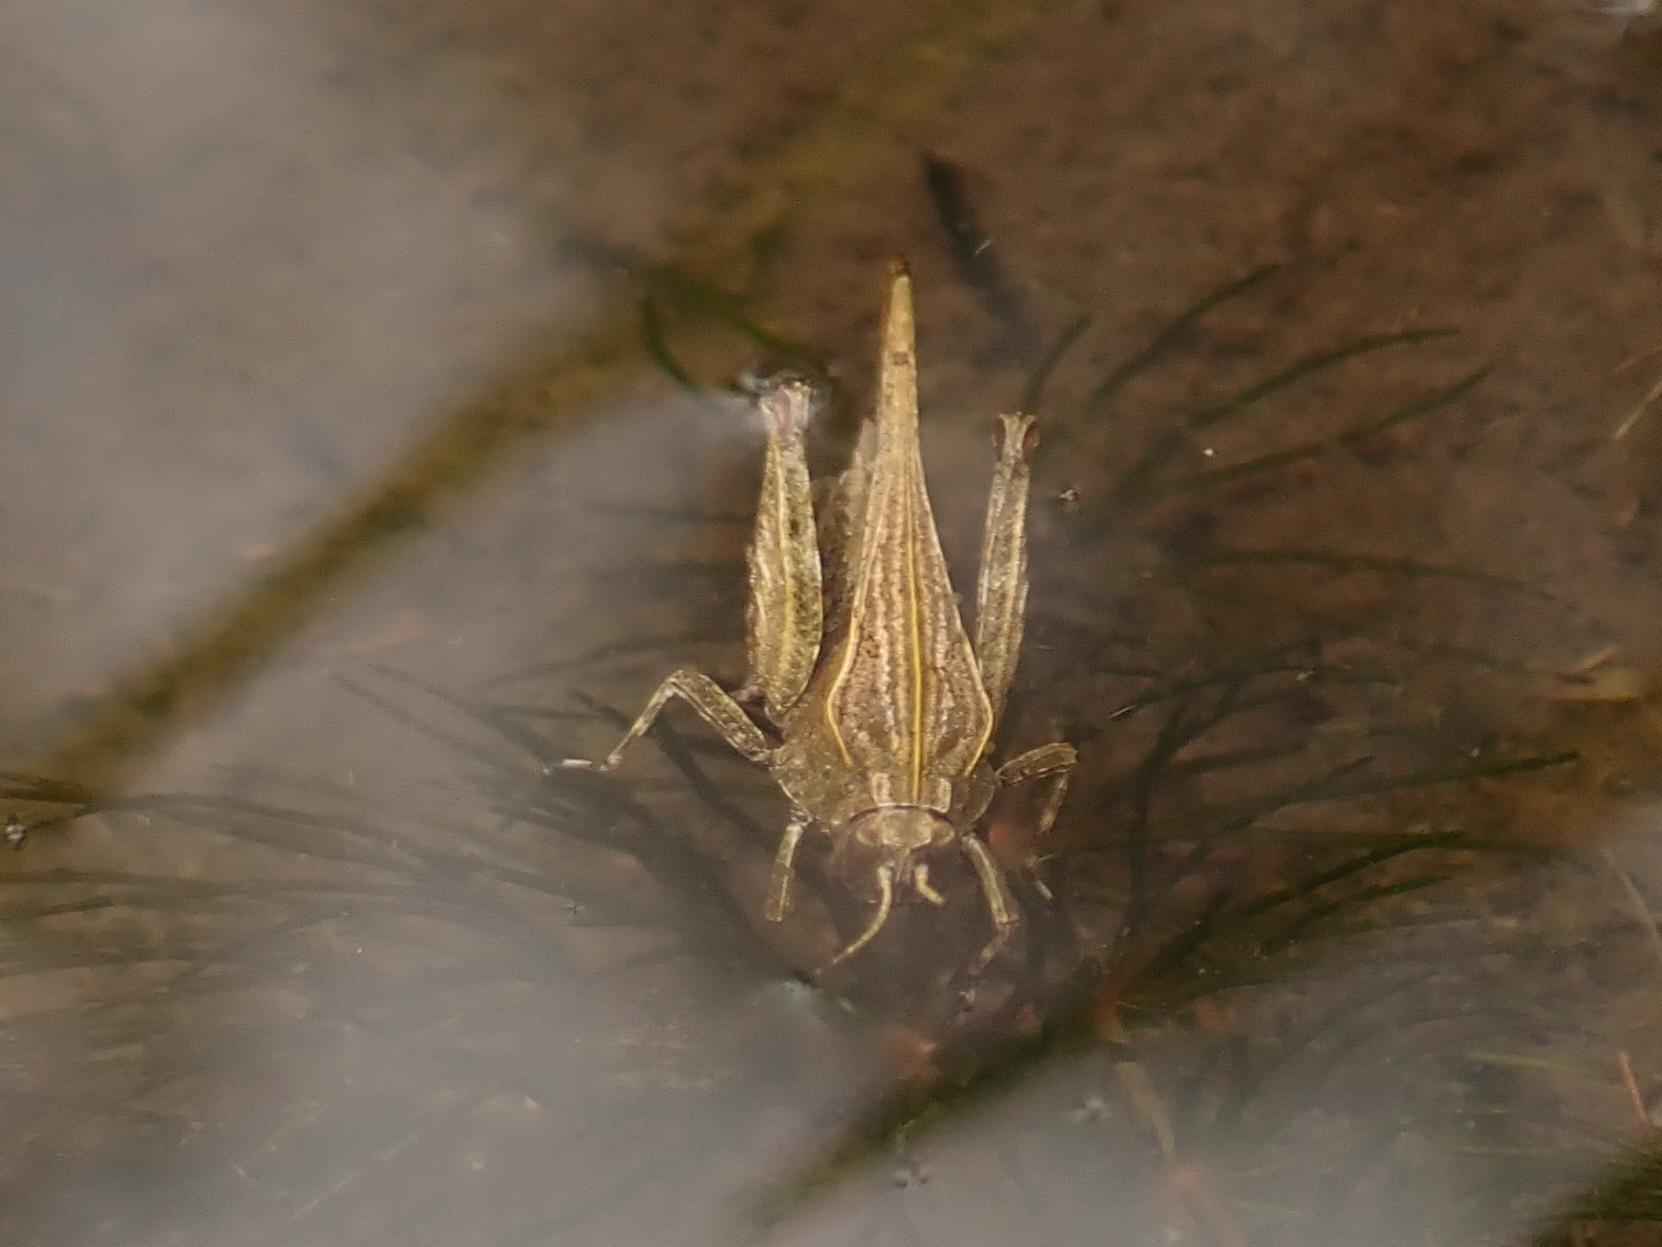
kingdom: Animalia
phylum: Arthropoda
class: Insecta
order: Orthoptera
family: Tetrigidae
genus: Tetrix
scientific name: Tetrix subulata
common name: Slender ground-hopper
